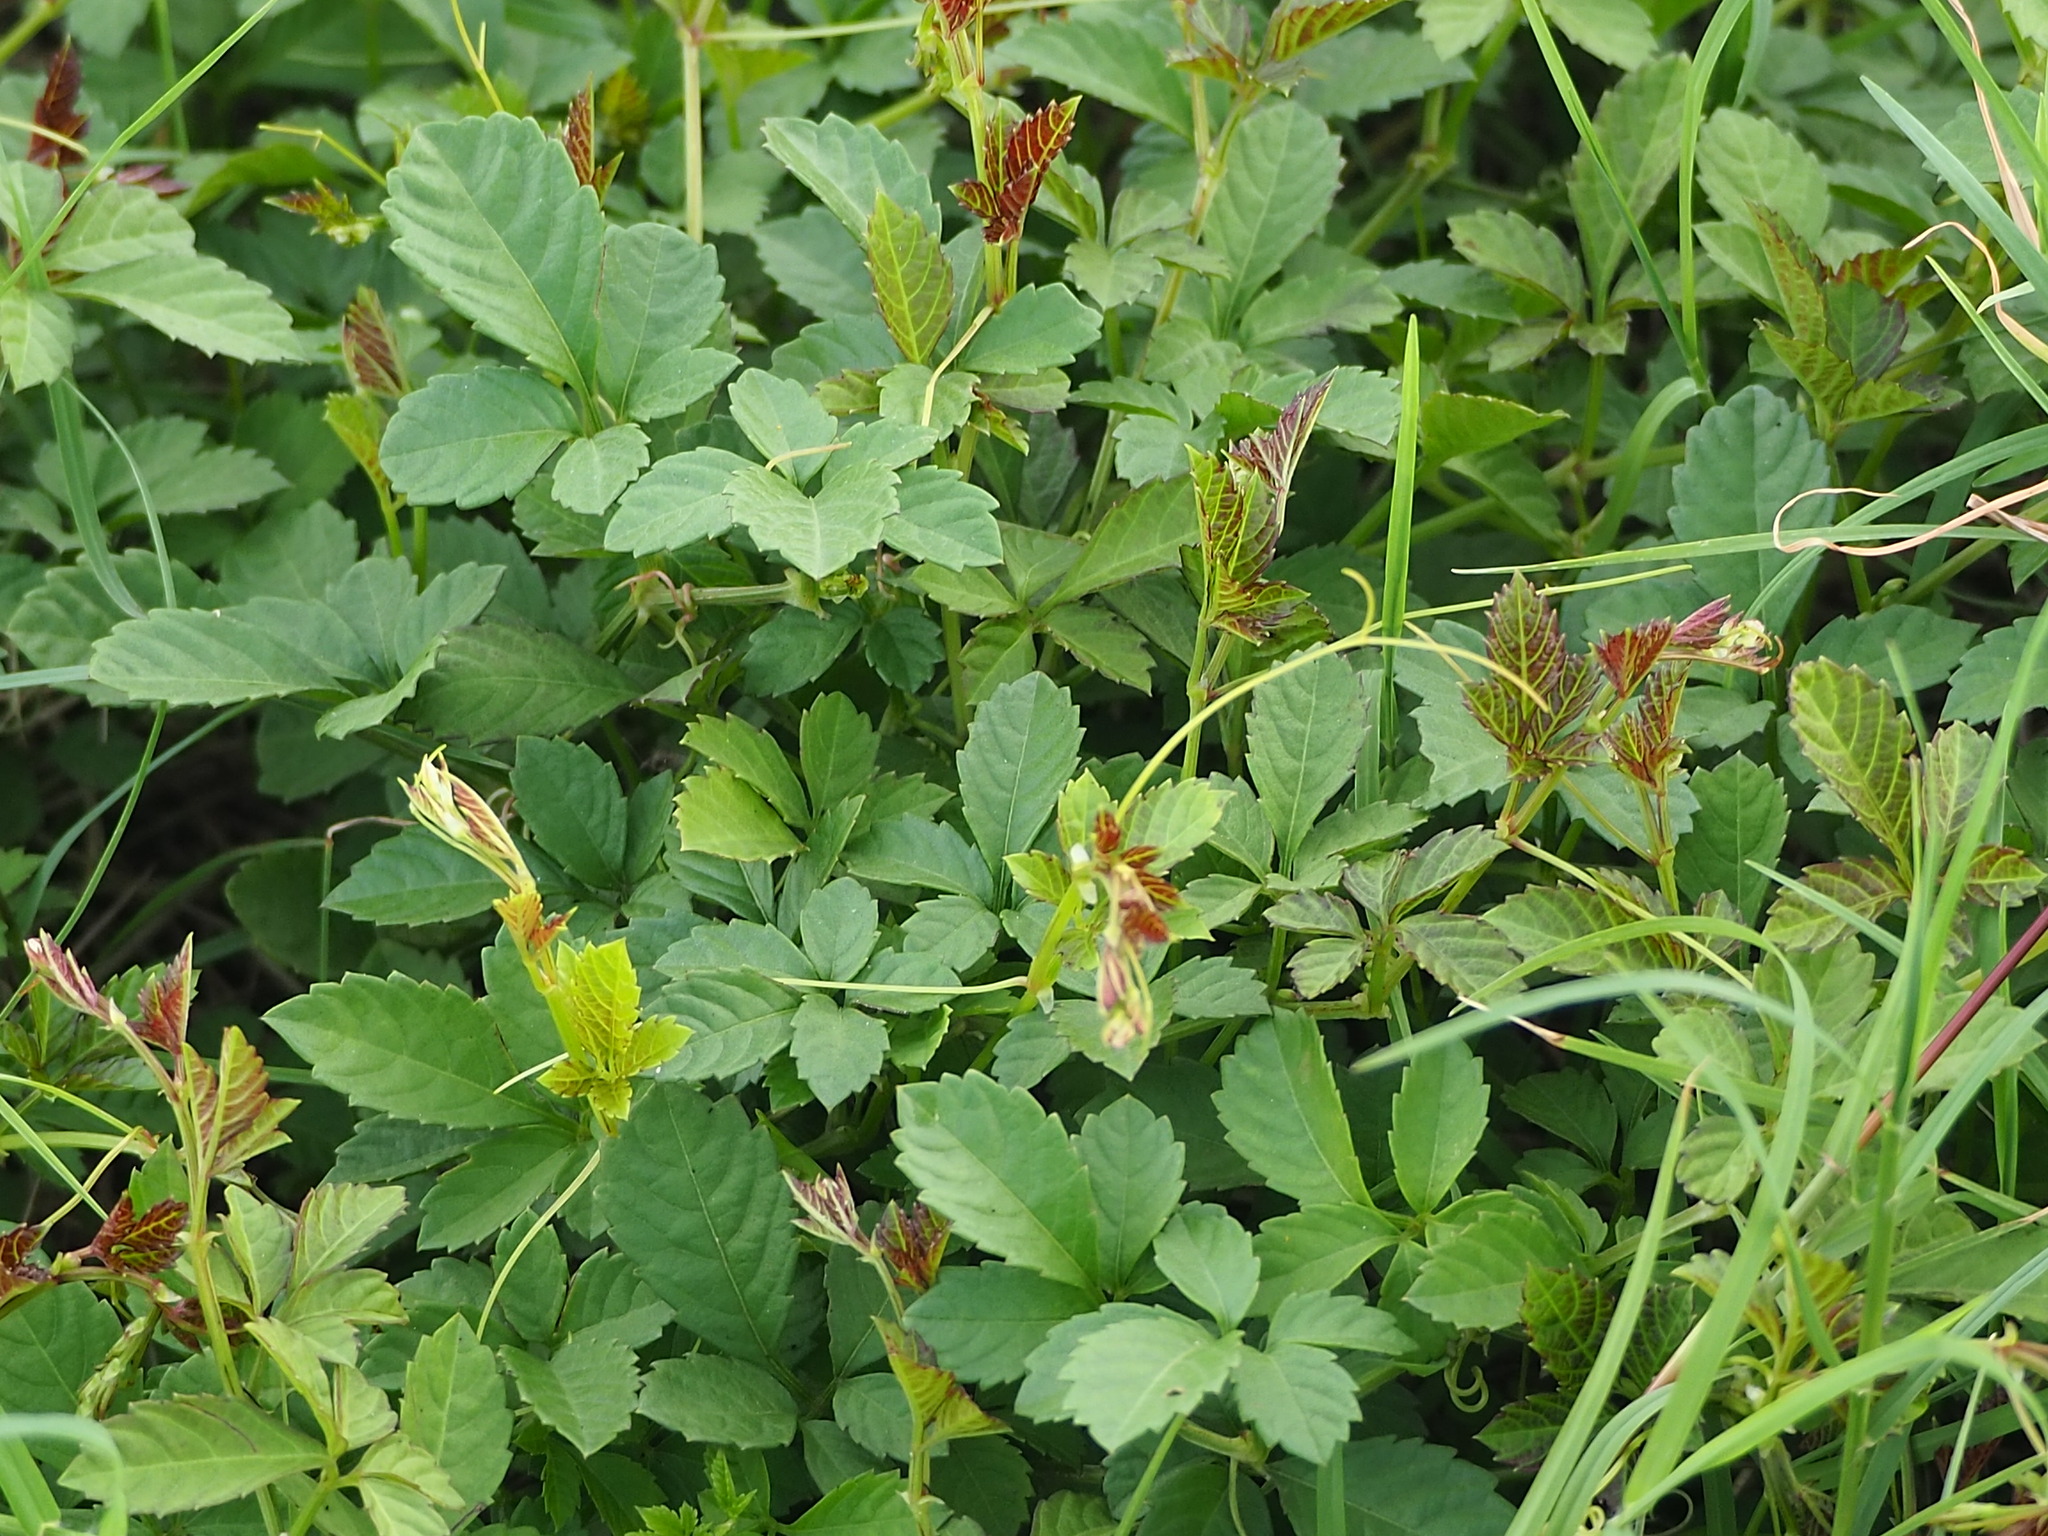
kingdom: Plantae
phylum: Tracheophyta
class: Magnoliopsida
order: Vitales
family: Vitaceae
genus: Causonis
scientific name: Causonis japonica
